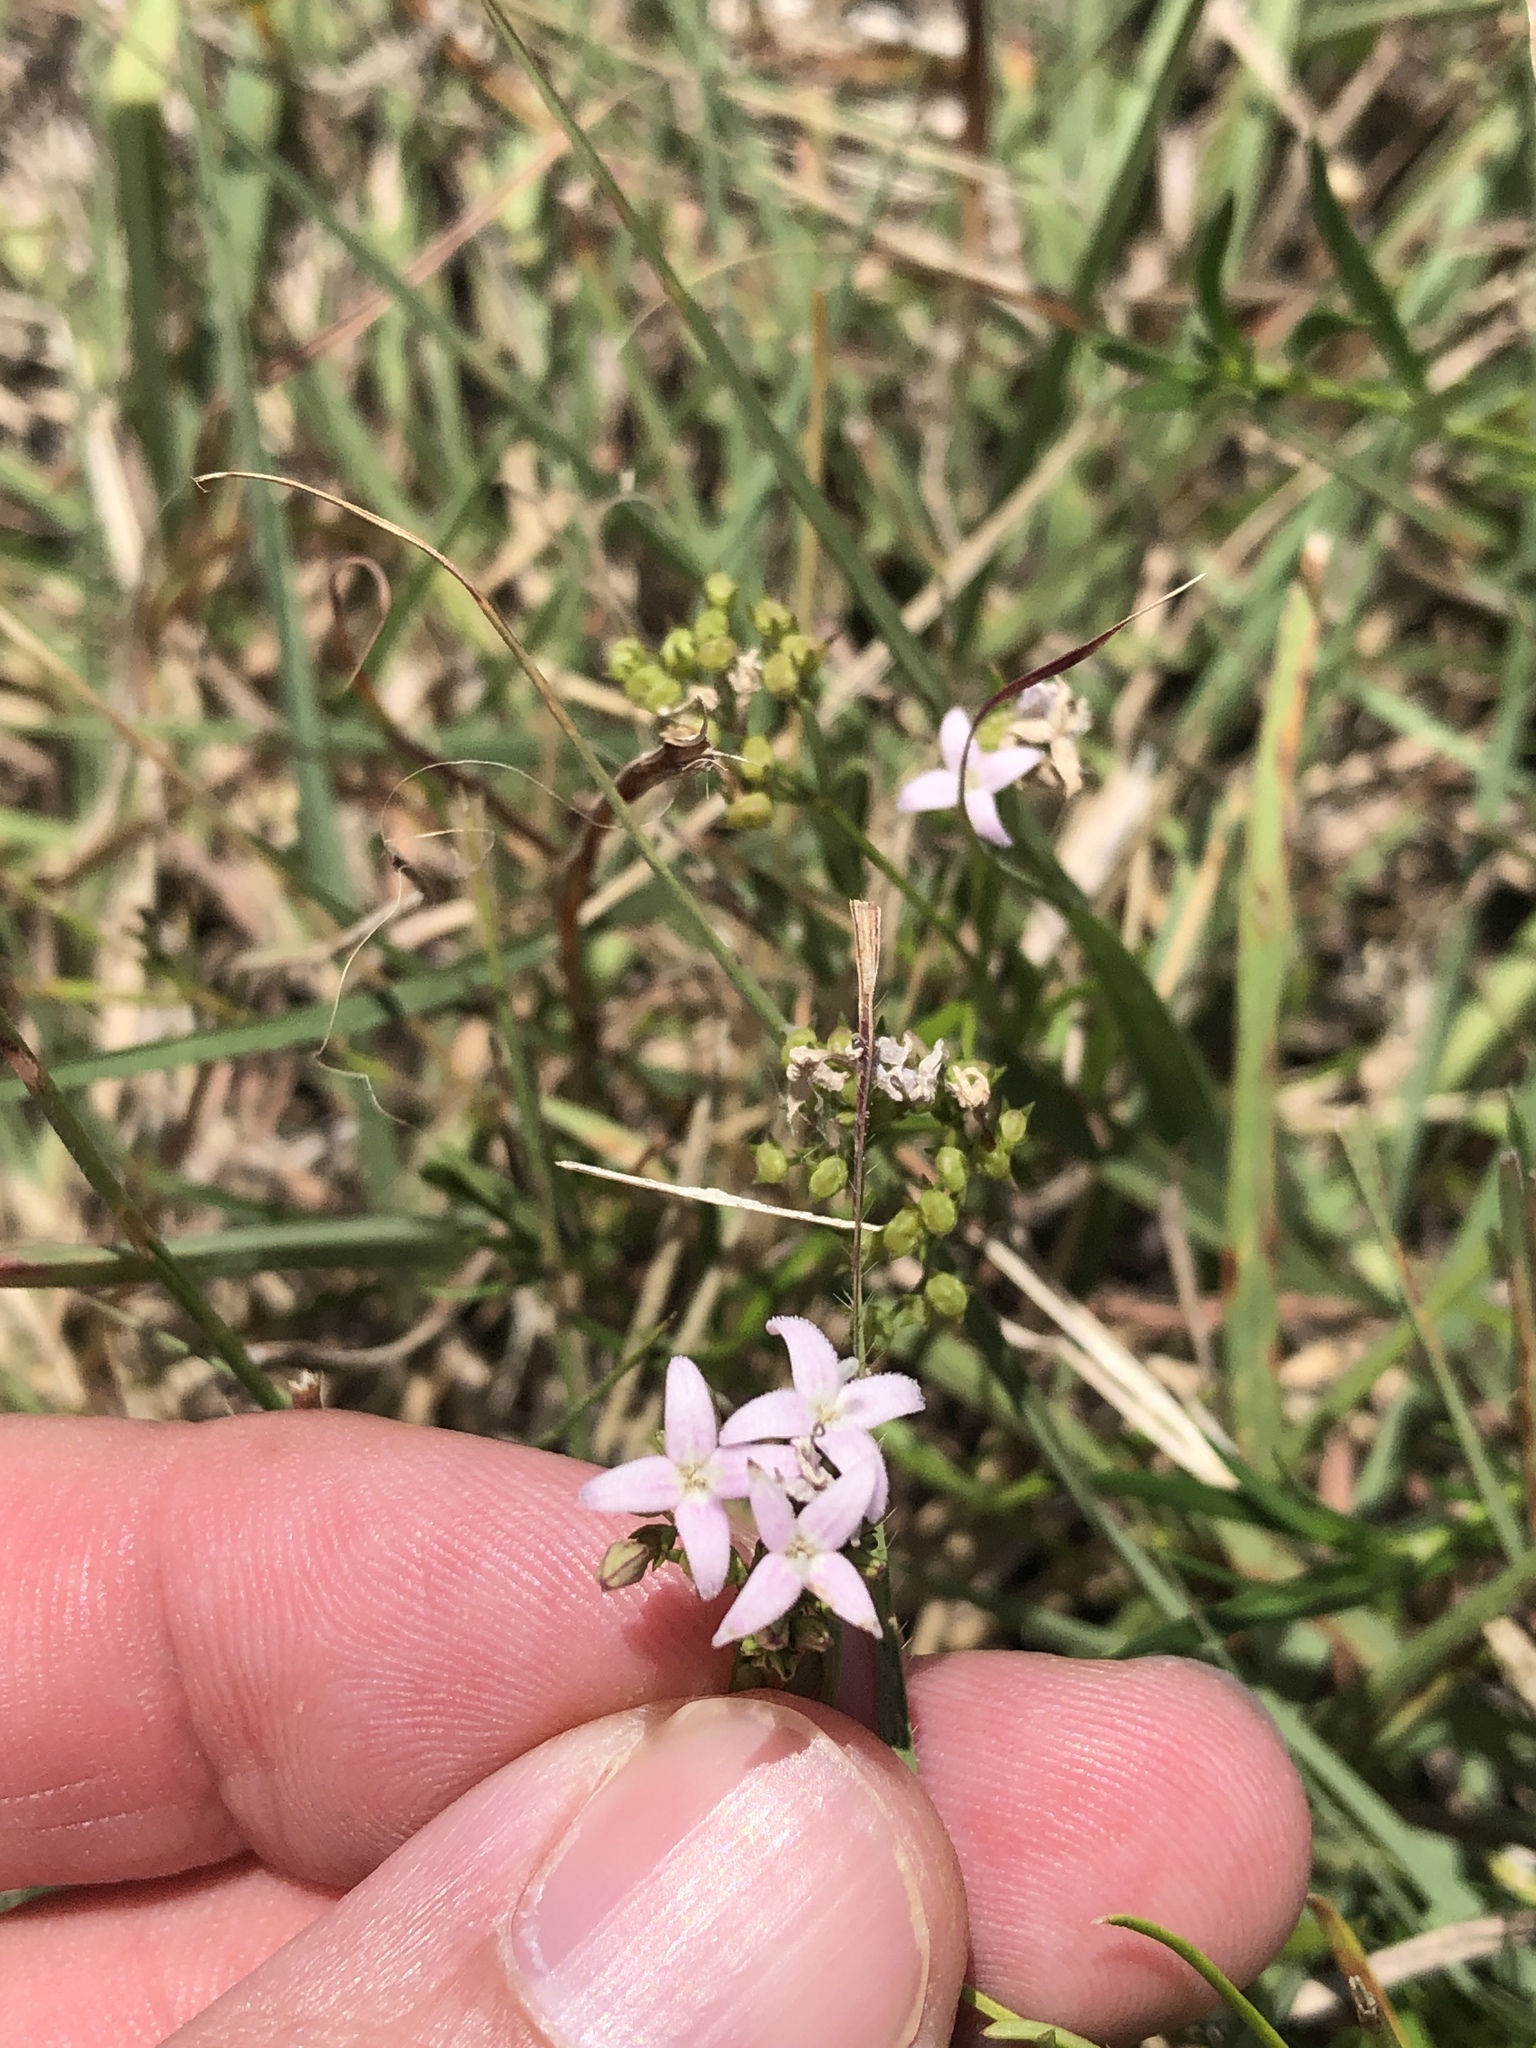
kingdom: Plantae
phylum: Tracheophyta
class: Magnoliopsida
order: Gentianales
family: Rubiaceae
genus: Stenaria
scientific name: Stenaria nigricans
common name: Diamondflowers
